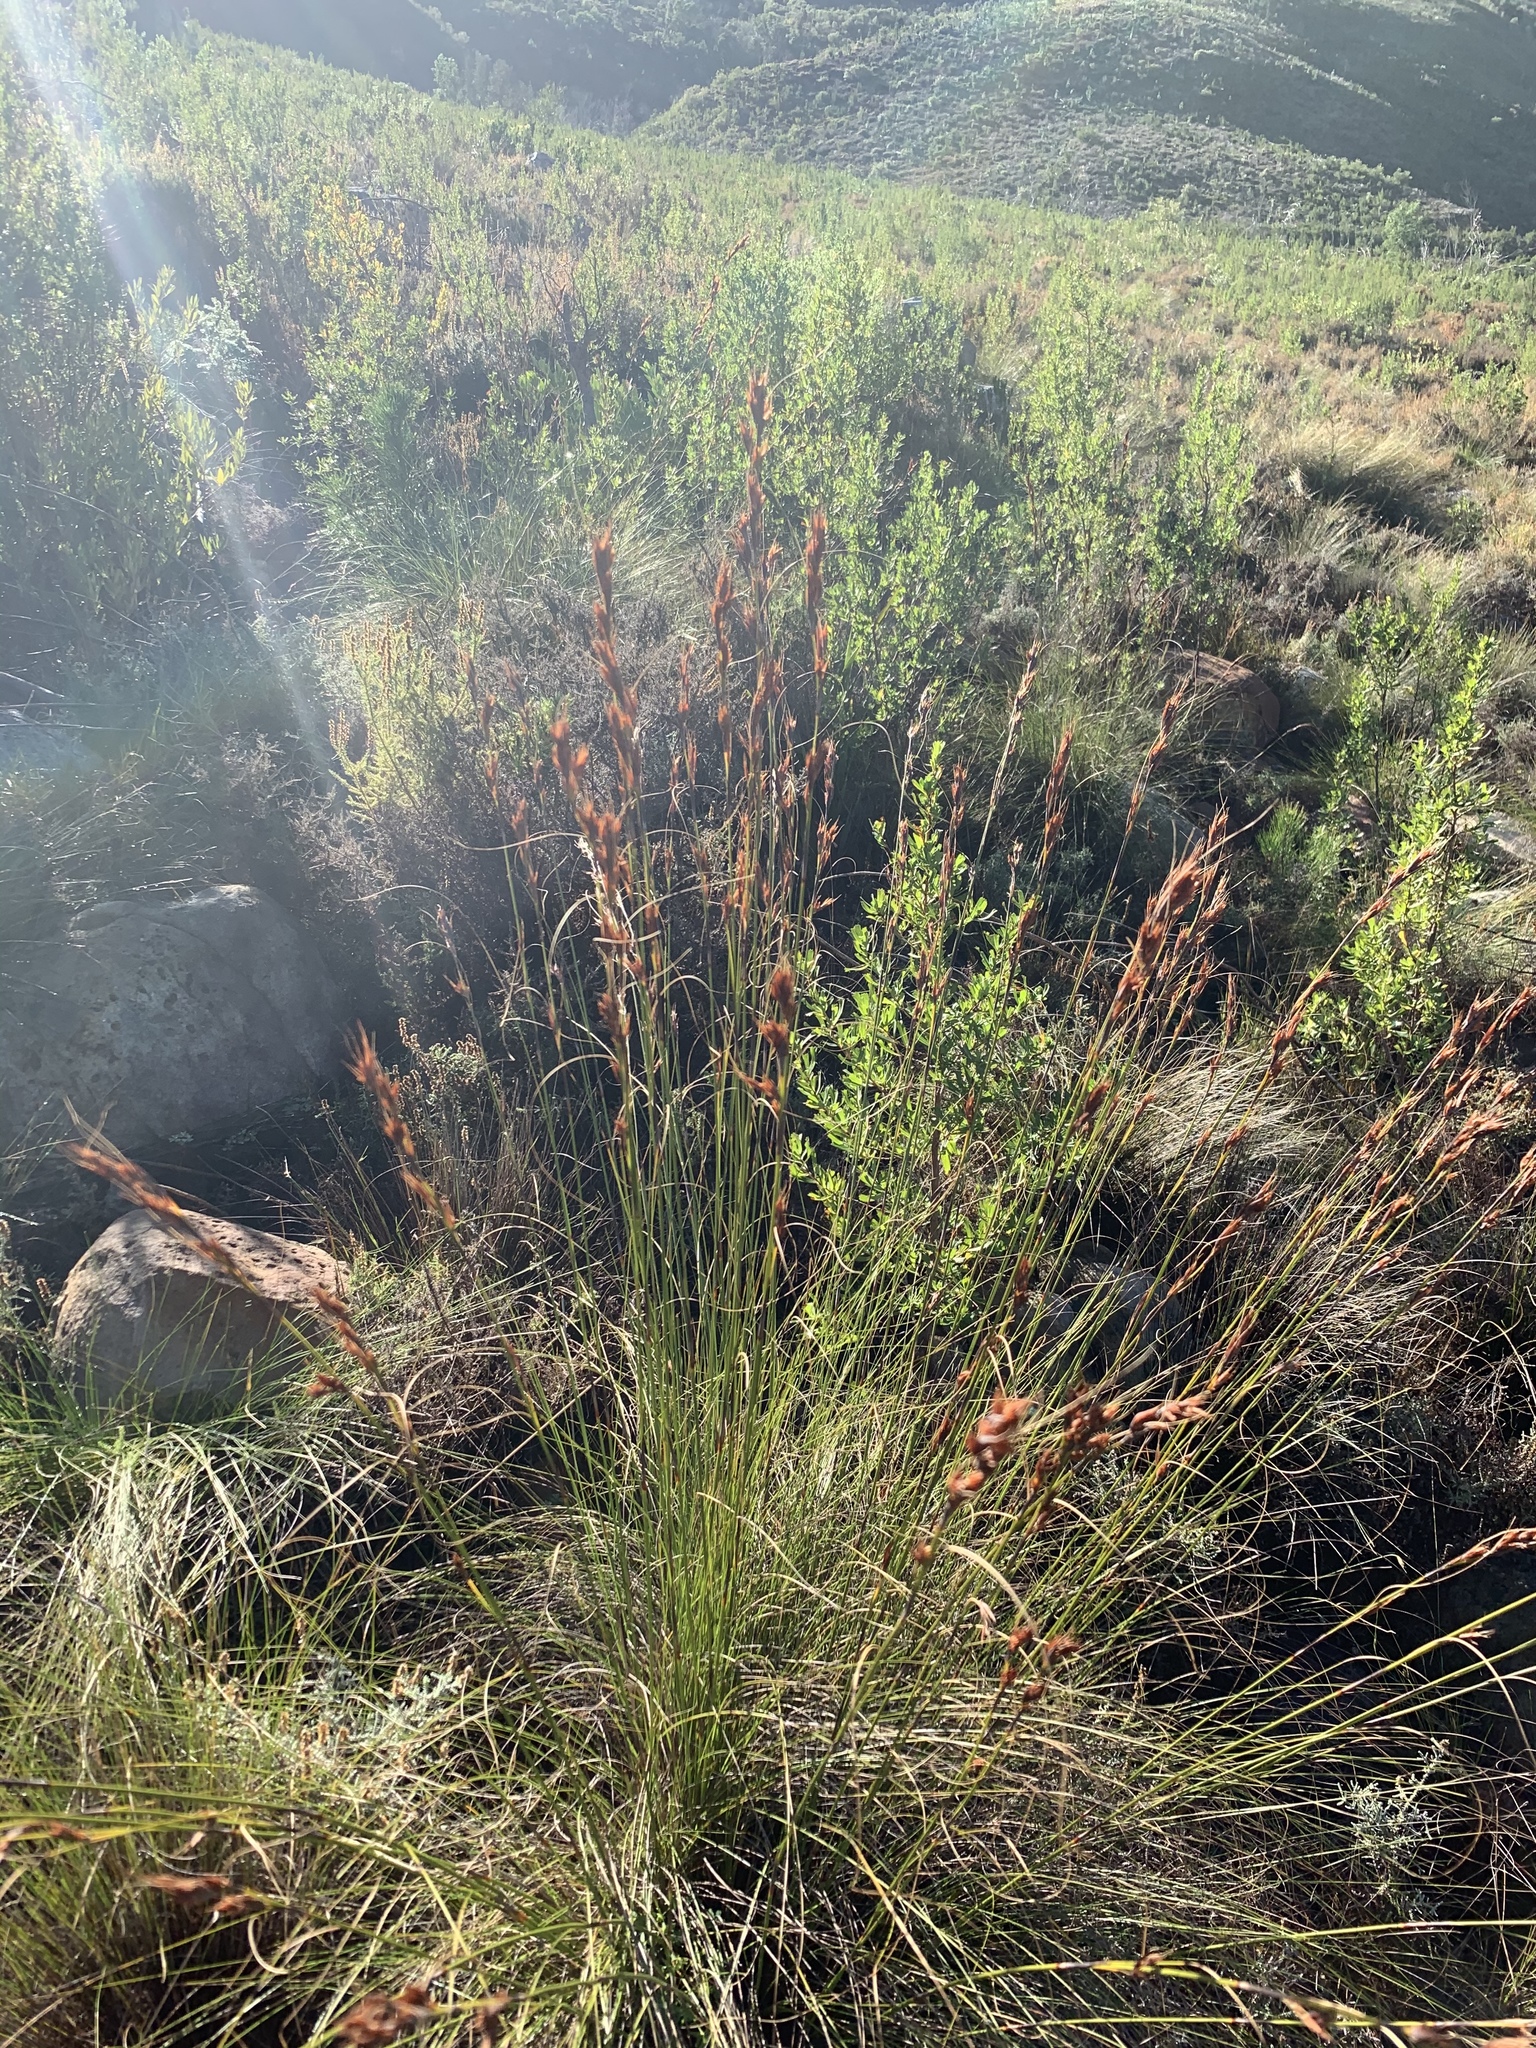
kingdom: Plantae
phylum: Tracheophyta
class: Liliopsida
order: Poales
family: Cyperaceae
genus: Tetraria
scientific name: Tetraria ustulata
